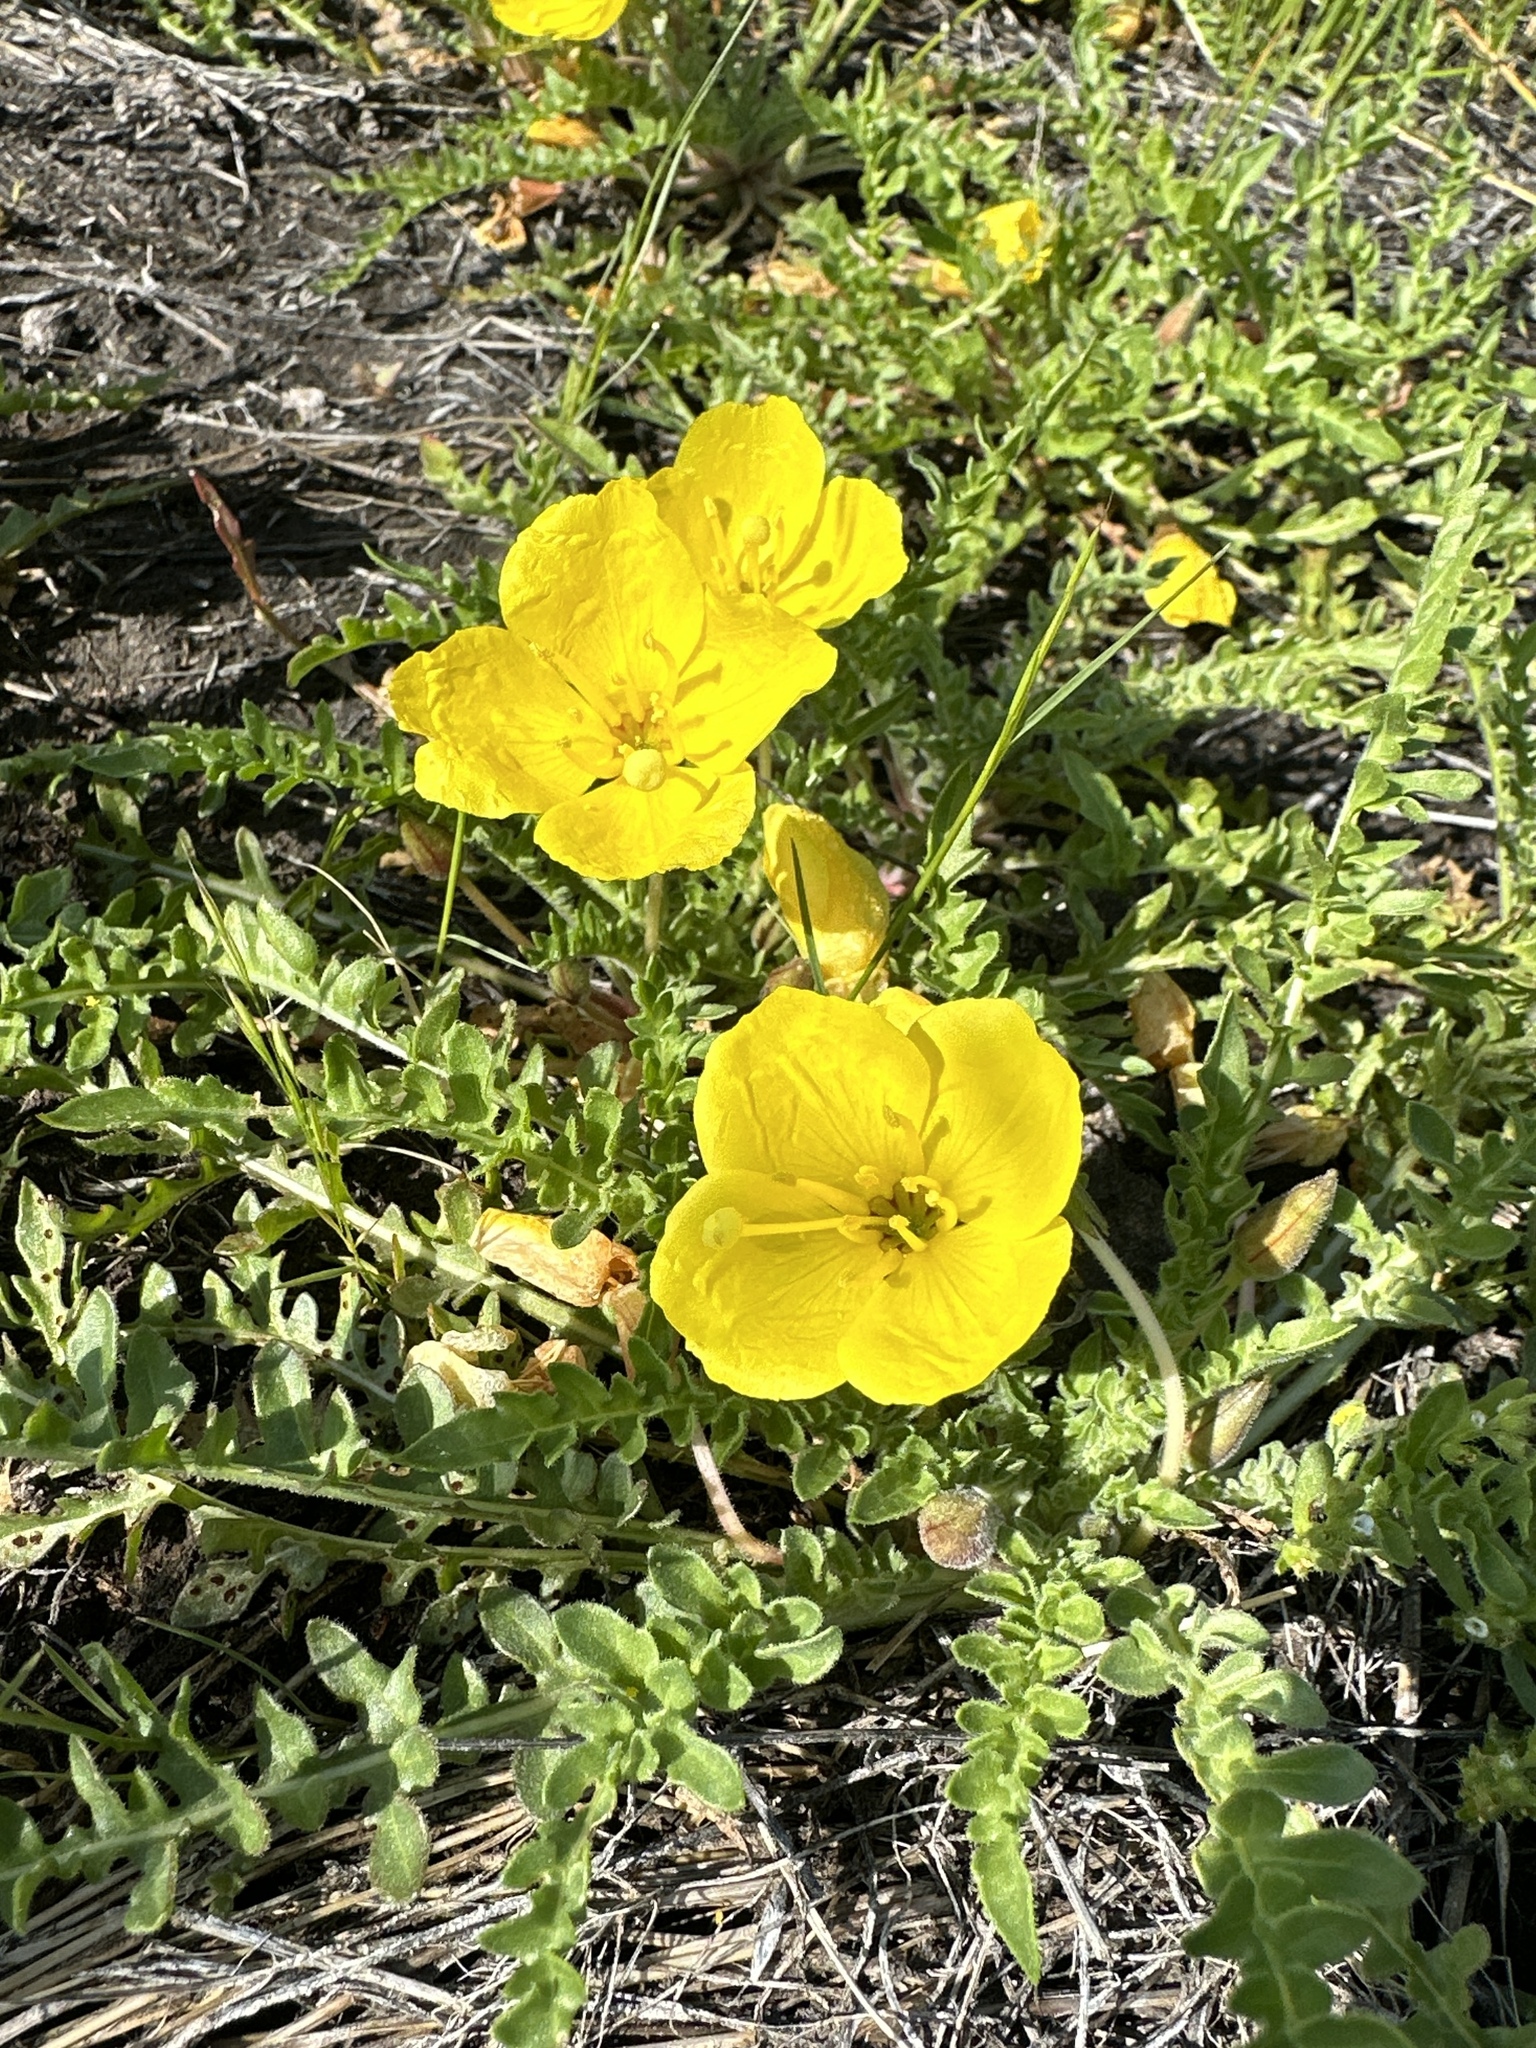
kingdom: Plantae
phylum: Tracheophyta
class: Magnoliopsida
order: Myrtales
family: Onagraceae
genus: Taraxia
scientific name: Taraxia tanacetifolia
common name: Tansyleaf evening primrose
